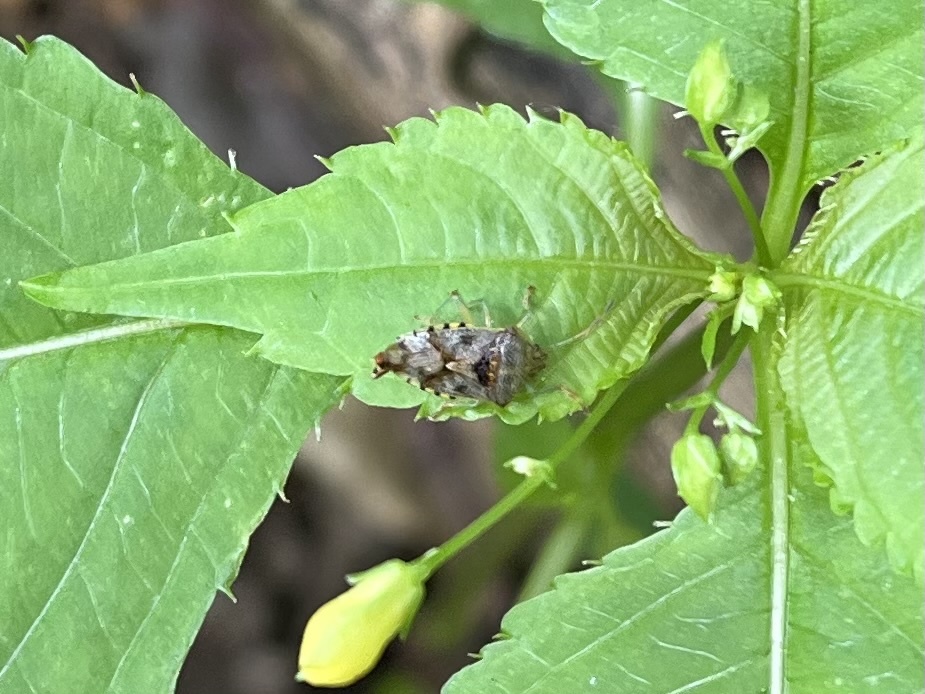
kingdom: Animalia
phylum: Arthropoda
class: Insecta
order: Hemiptera
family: Acanthosomatidae
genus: Elasmucha
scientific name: Elasmucha grisea
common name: Parent bug
